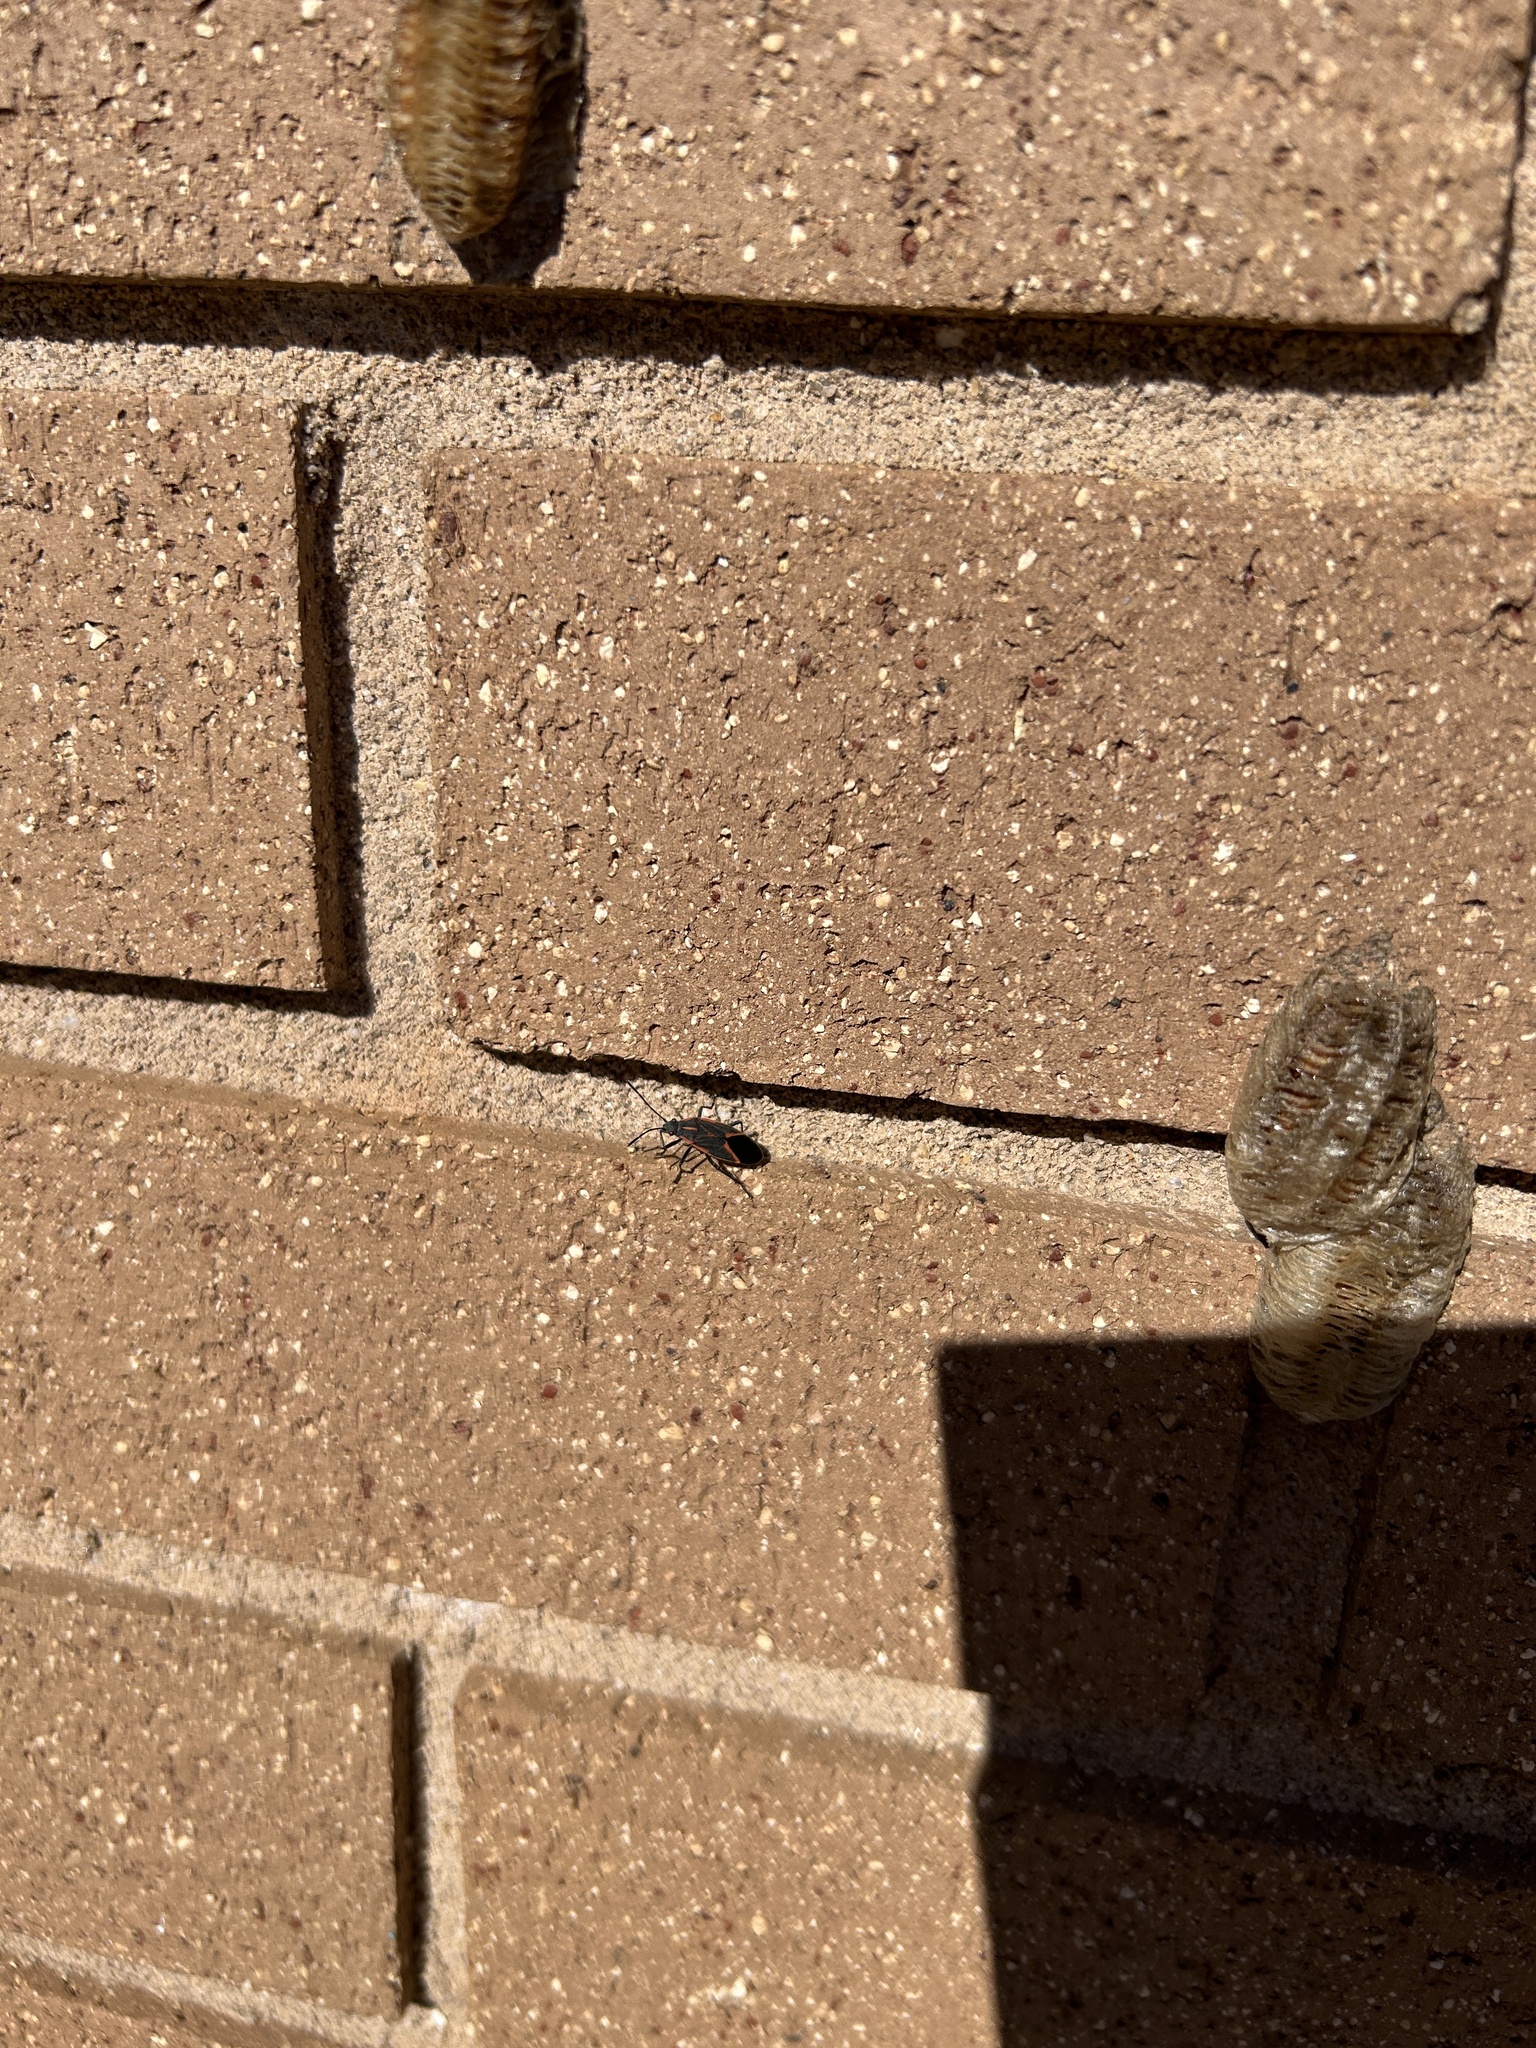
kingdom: Animalia
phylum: Arthropoda
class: Insecta
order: Hemiptera
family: Rhopalidae
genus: Boisea
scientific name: Boisea trivittata
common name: Boxelder bug
